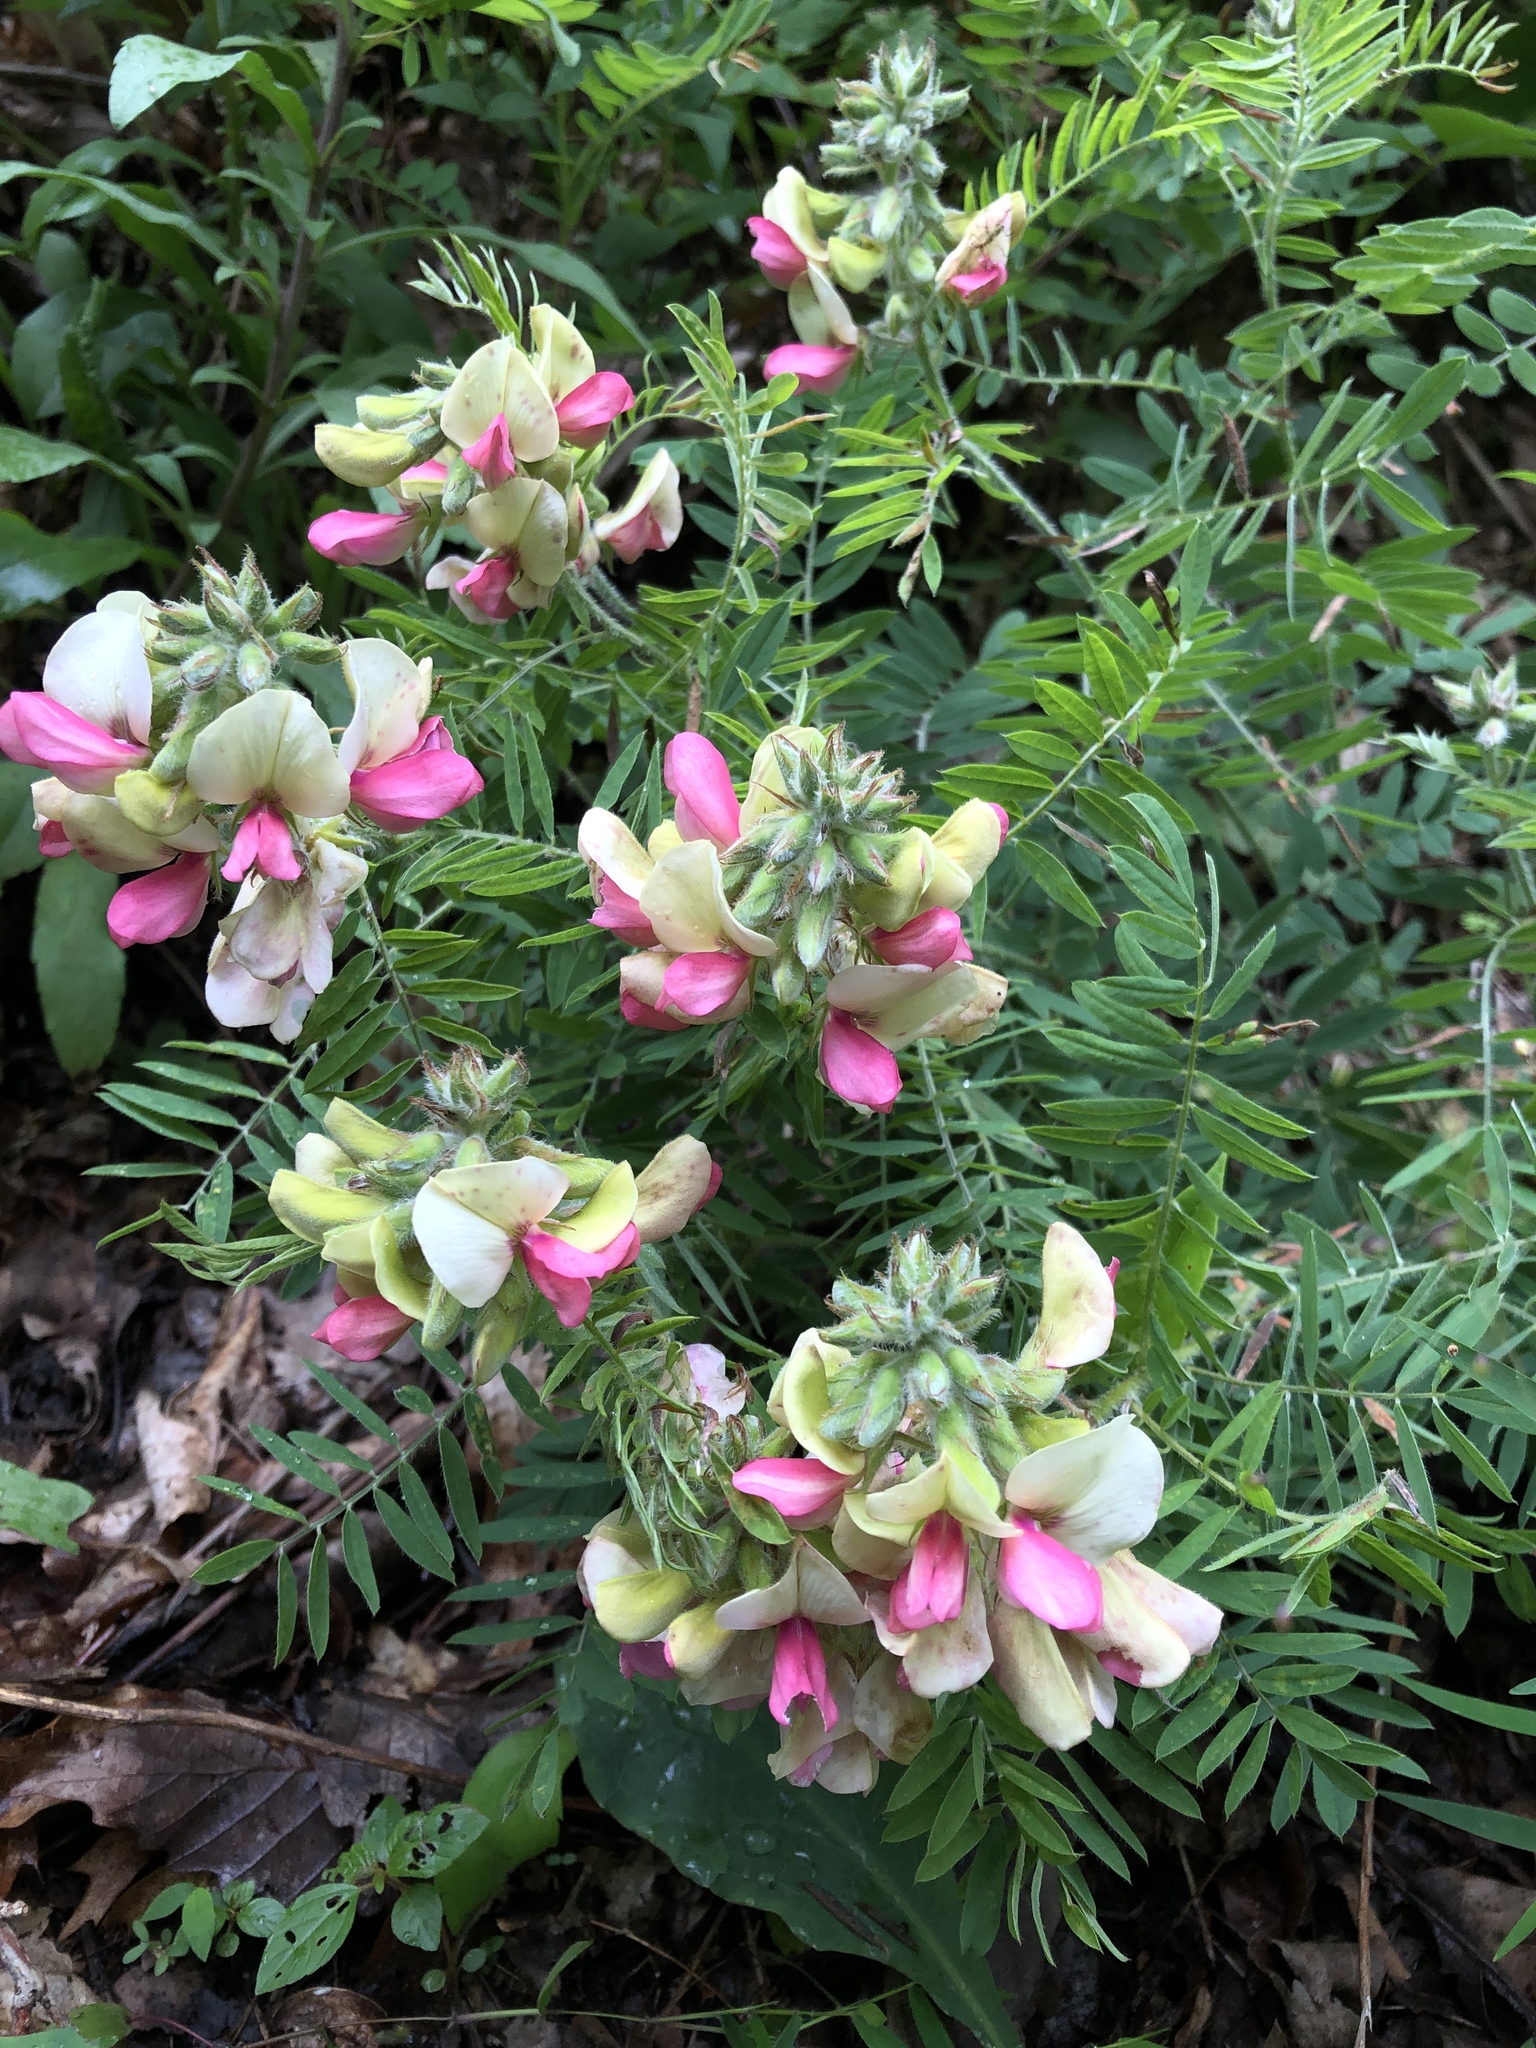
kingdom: Plantae
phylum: Tracheophyta
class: Magnoliopsida
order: Fabales
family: Fabaceae
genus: Tephrosia
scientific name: Tephrosia virginiana
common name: Rabbit-pea
